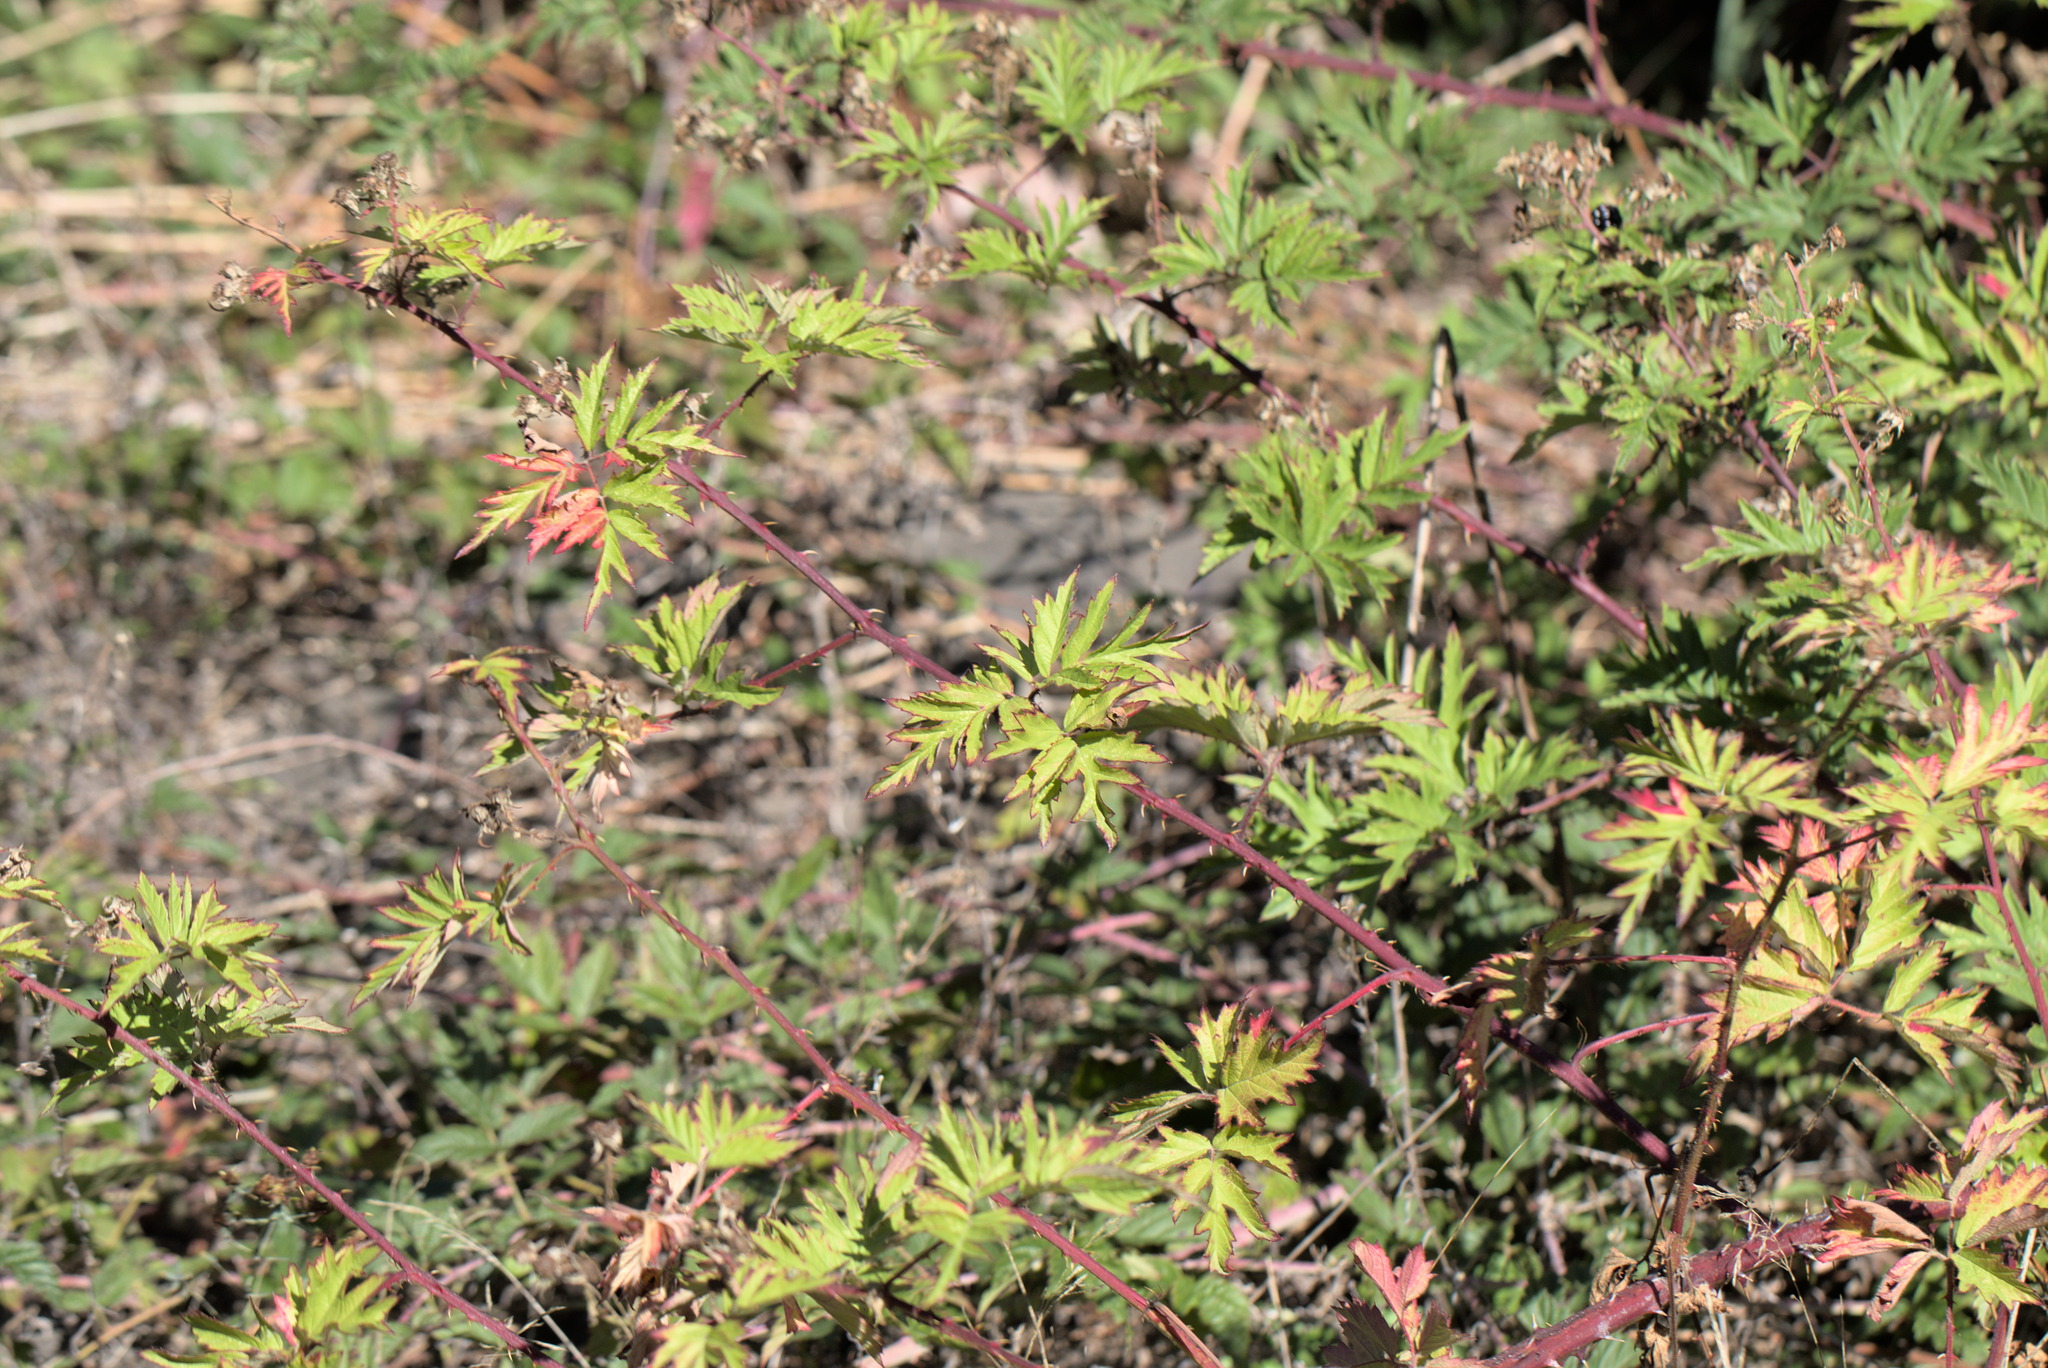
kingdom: Plantae
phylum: Tracheophyta
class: Magnoliopsida
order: Rosales
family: Rosaceae
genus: Rubus
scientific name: Rubus laciniatus
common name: Evergreen blackberry
